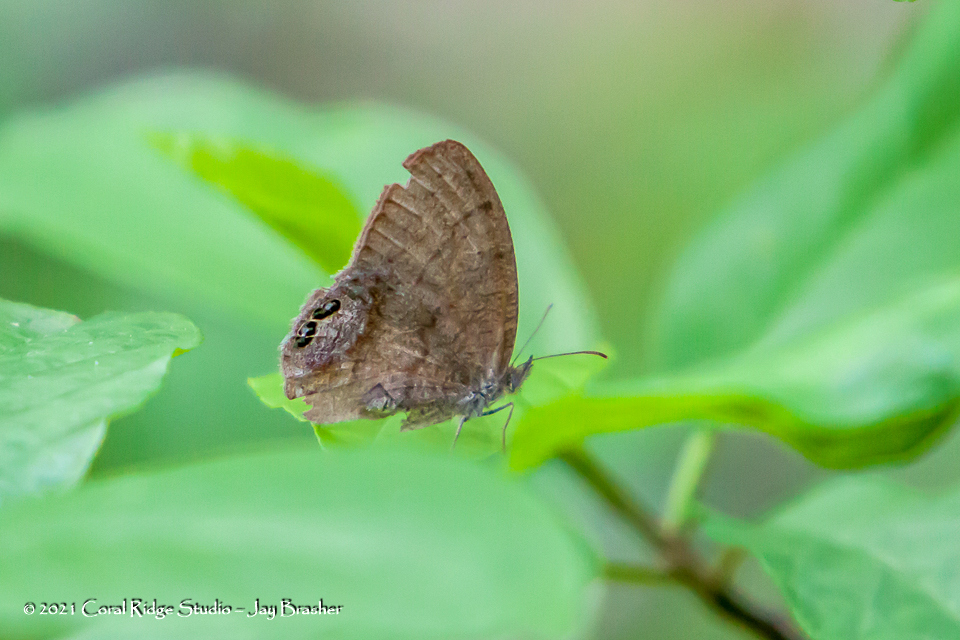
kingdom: Animalia
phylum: Arthropoda
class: Insecta
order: Lepidoptera
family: Nymphalidae
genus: Euptychia
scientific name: Euptychia cornelius
